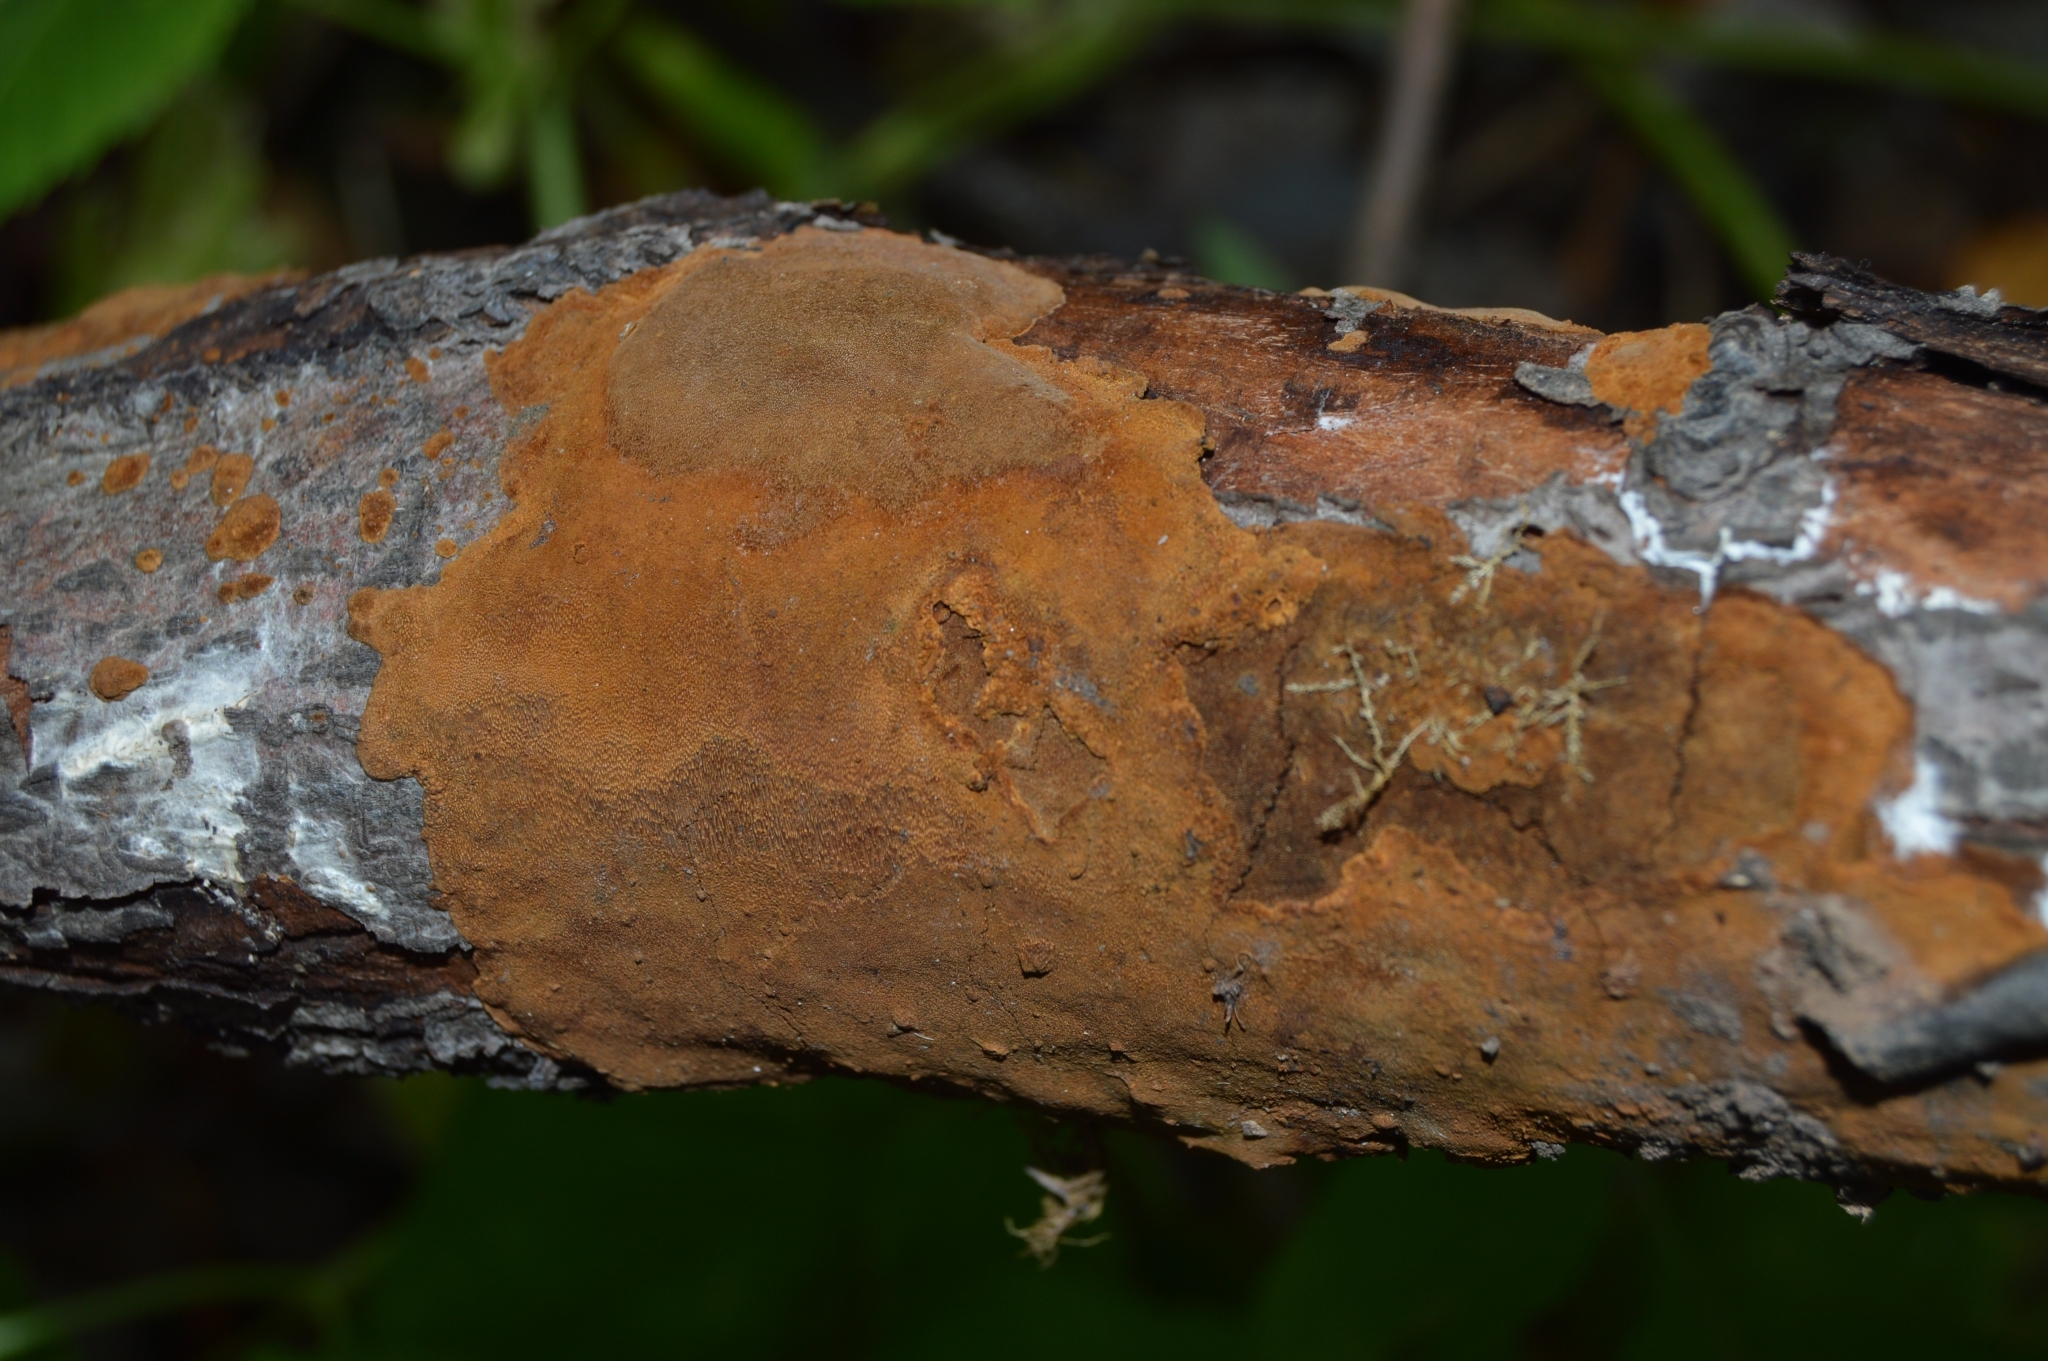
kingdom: Fungi
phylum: Basidiomycota
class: Agaricomycetes
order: Hymenochaetales
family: Hymenochaetaceae
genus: Fomitiporia
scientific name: Fomitiporia punctata
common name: Elbowpatch crust
